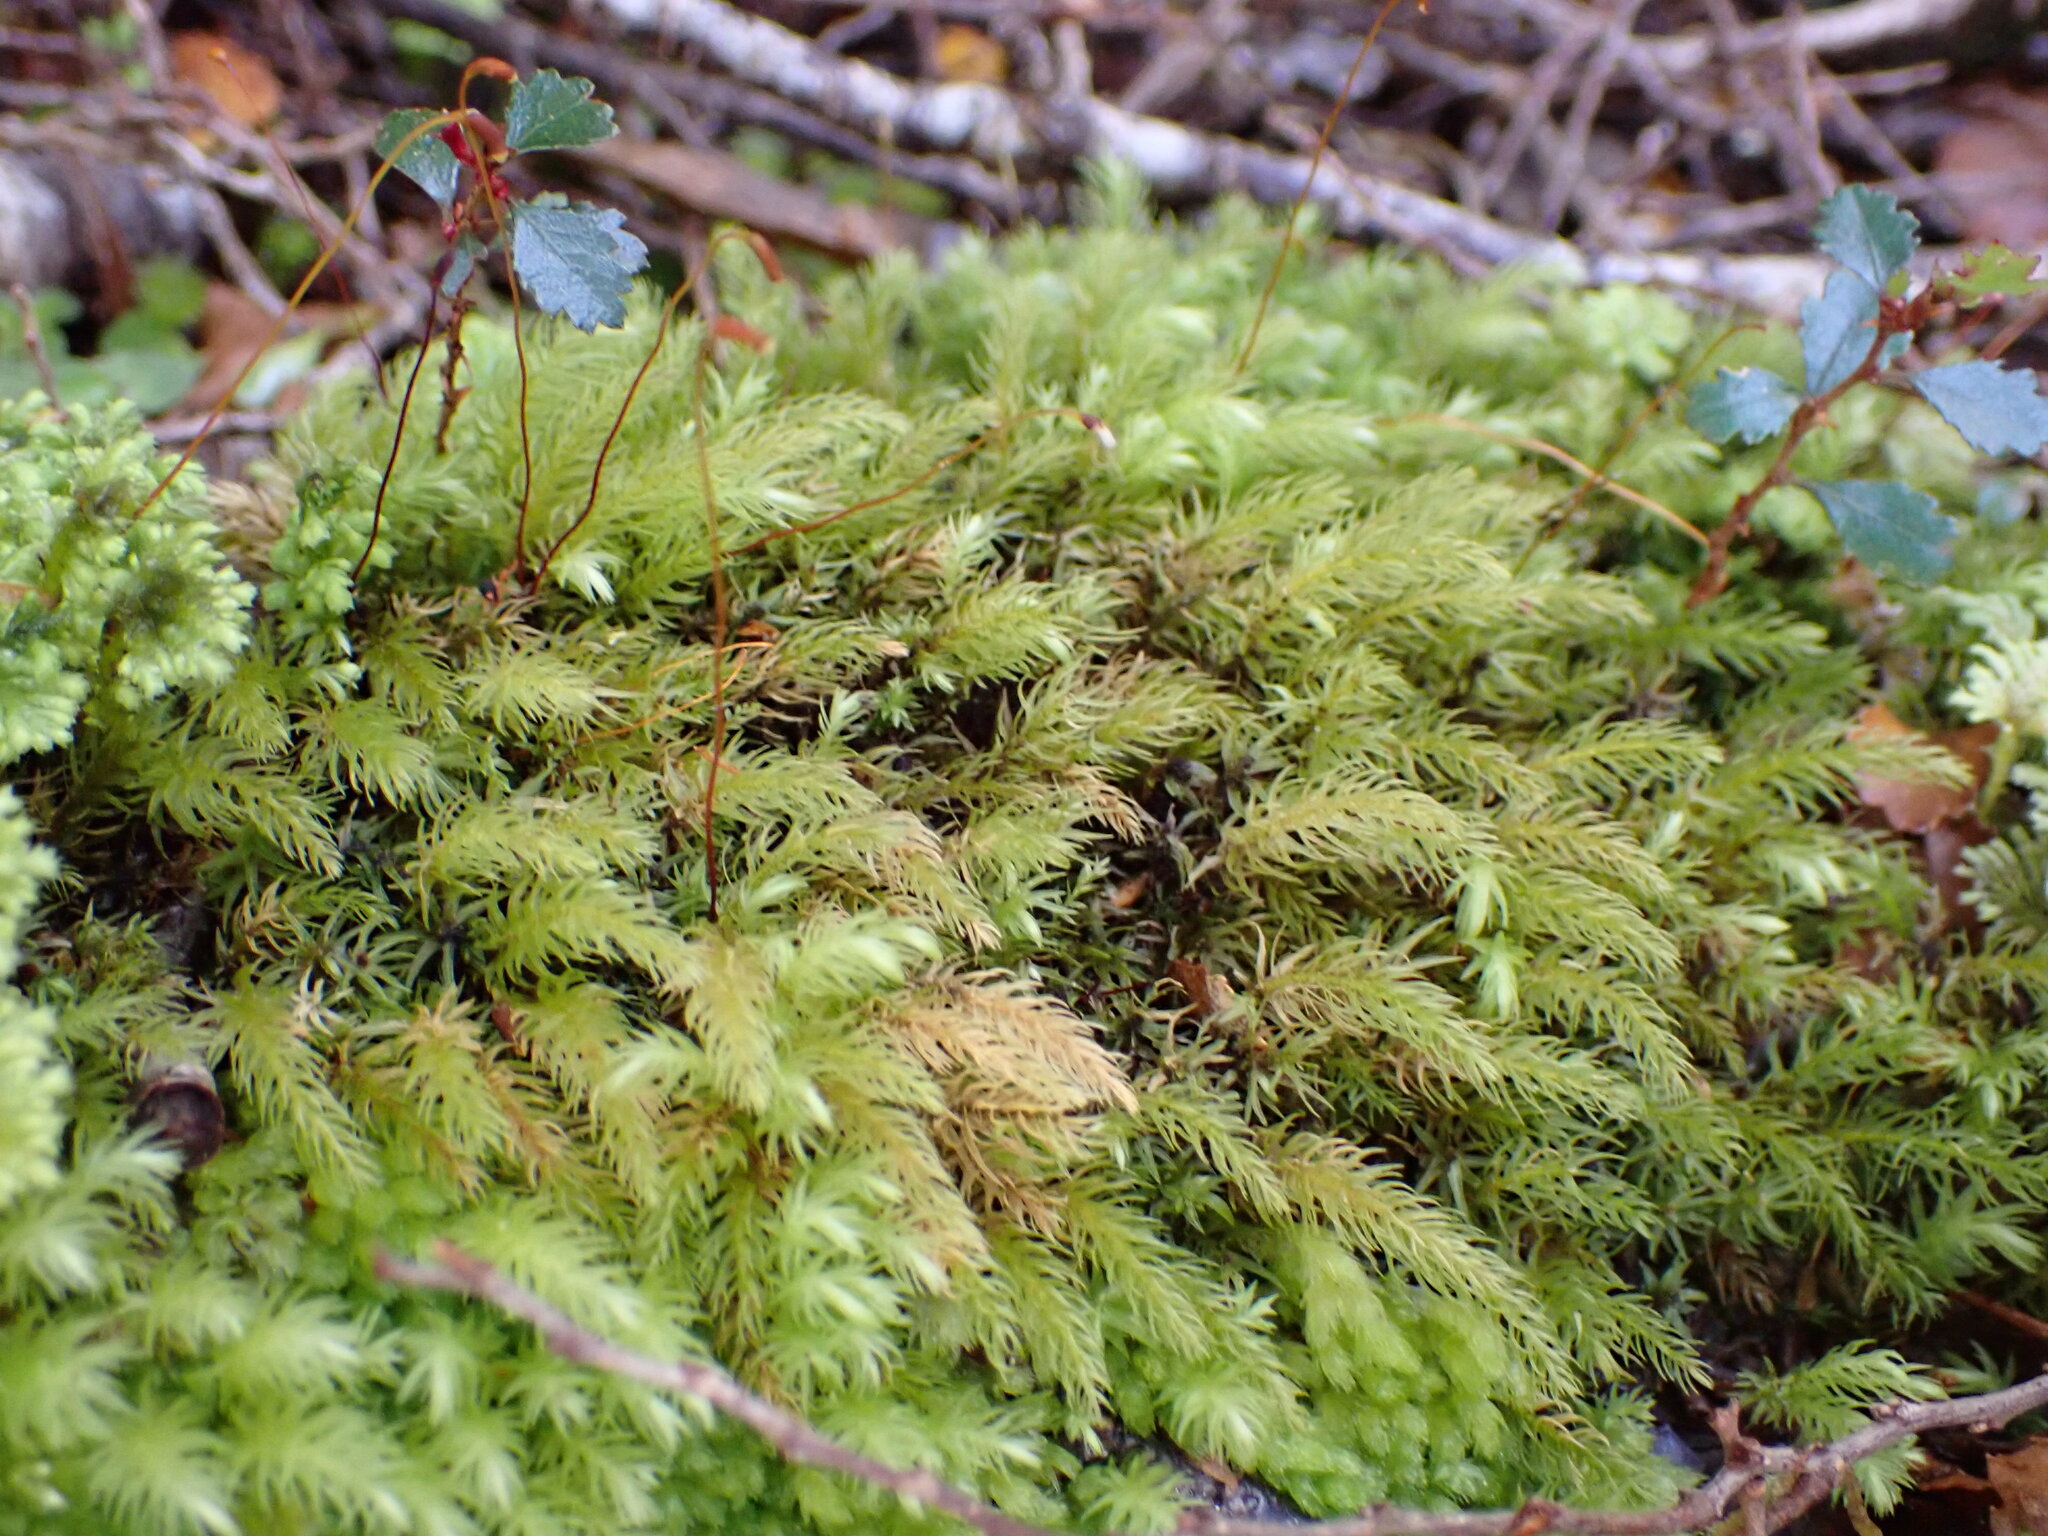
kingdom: Plantae
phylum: Bryophyta
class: Bryopsida
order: Aulacomniales
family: Aulacomniaceae
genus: Hymenodontopsis
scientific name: Hymenodontopsis mnioides
